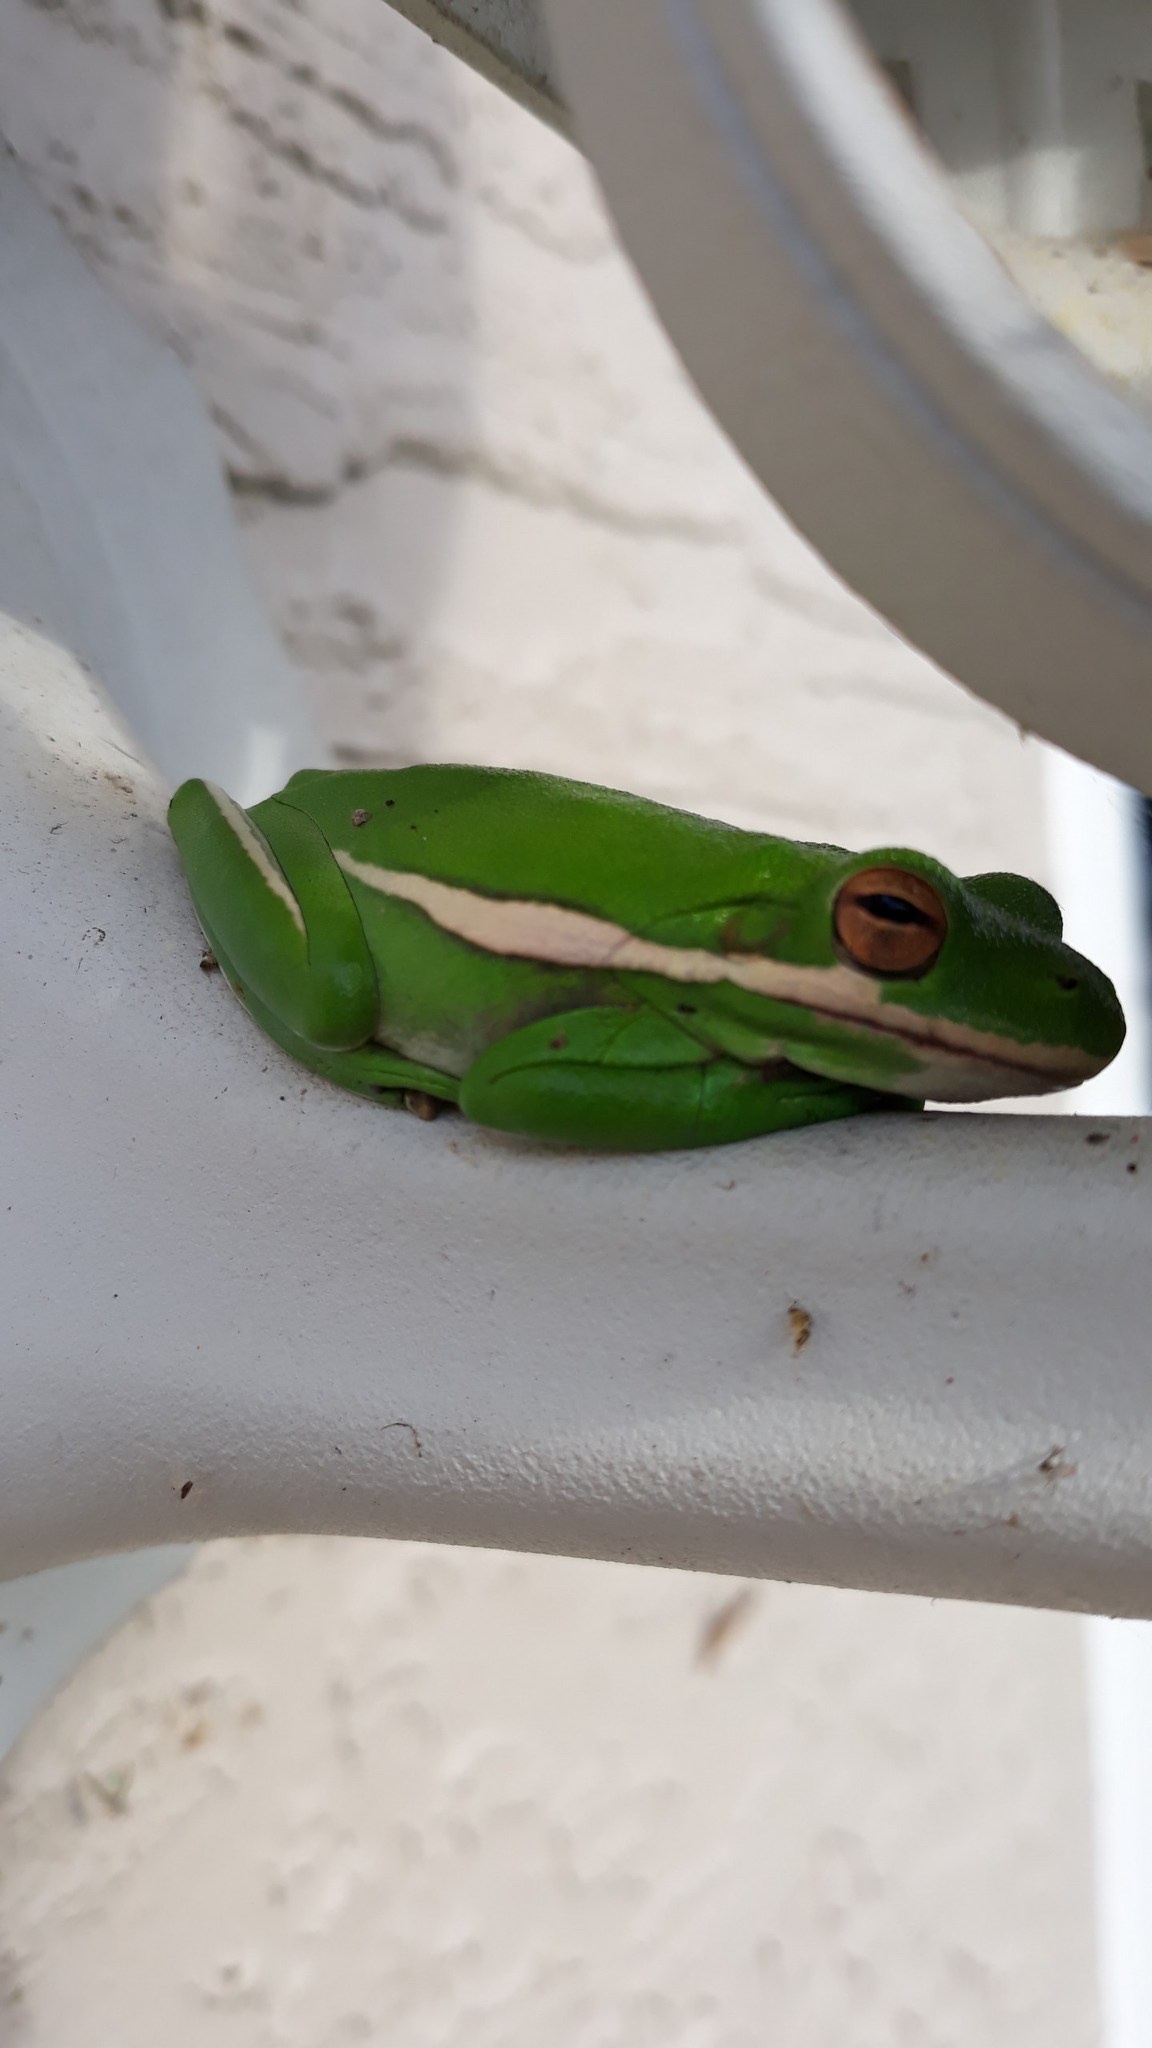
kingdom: Animalia
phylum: Chordata
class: Amphibia
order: Anura
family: Hylidae
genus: Dryophytes
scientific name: Dryophytes cinereus
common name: Green treefrog
